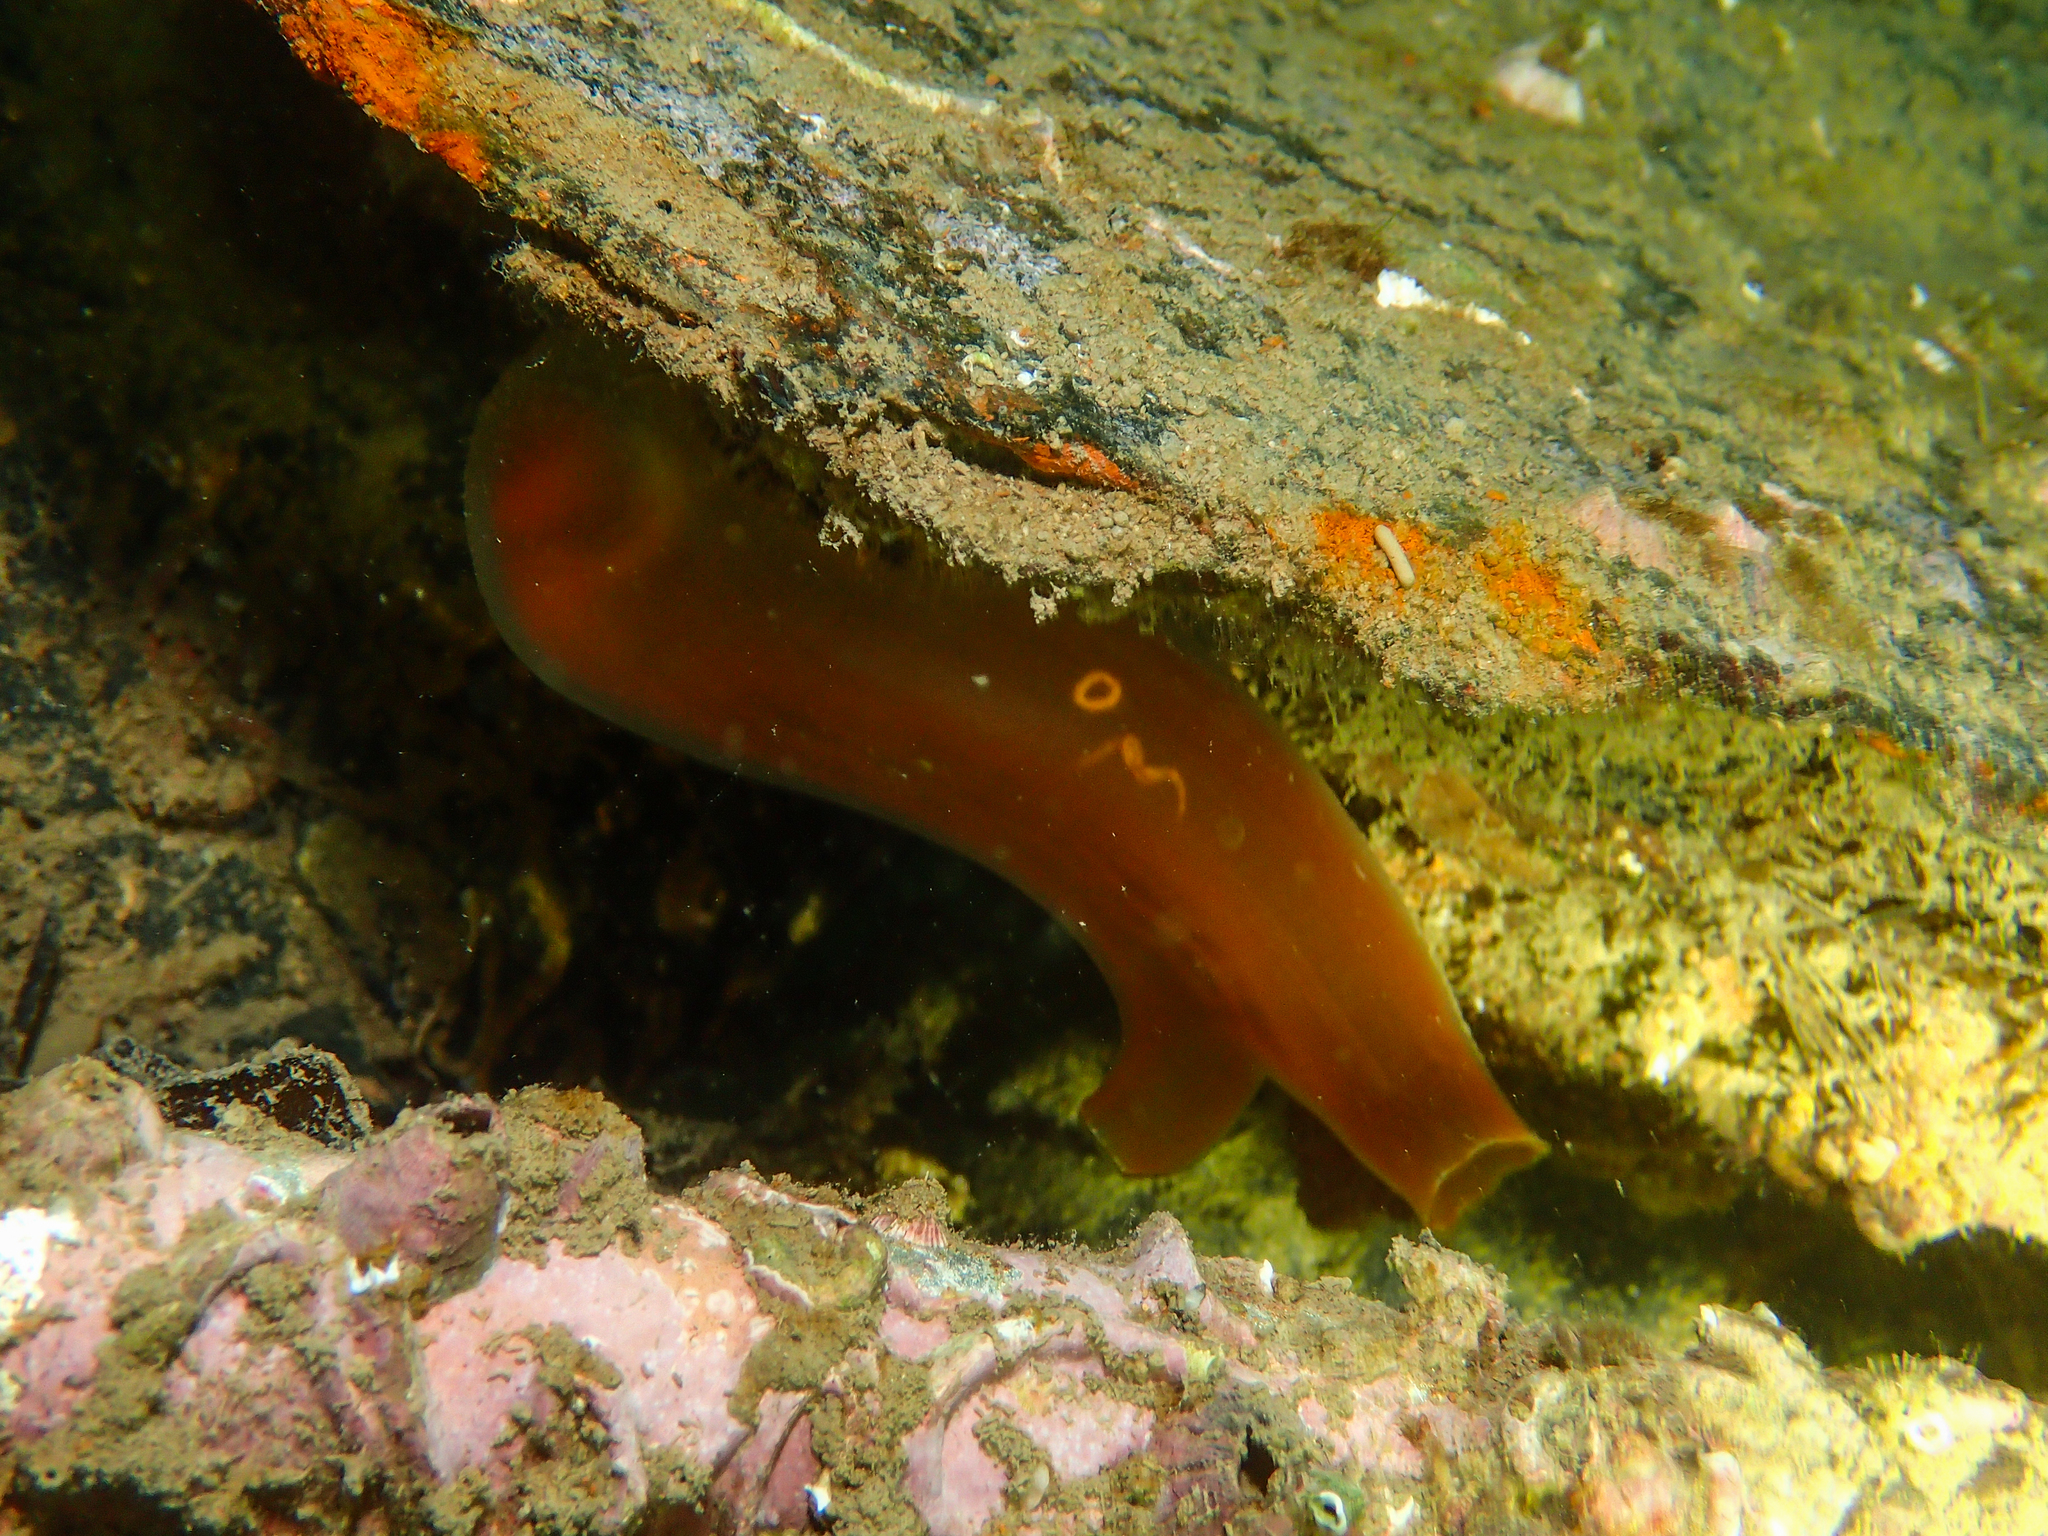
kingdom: Animalia
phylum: Chordata
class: Ascidiacea
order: Phlebobranchia
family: Cionidae
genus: Ciona
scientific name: Ciona roulii
